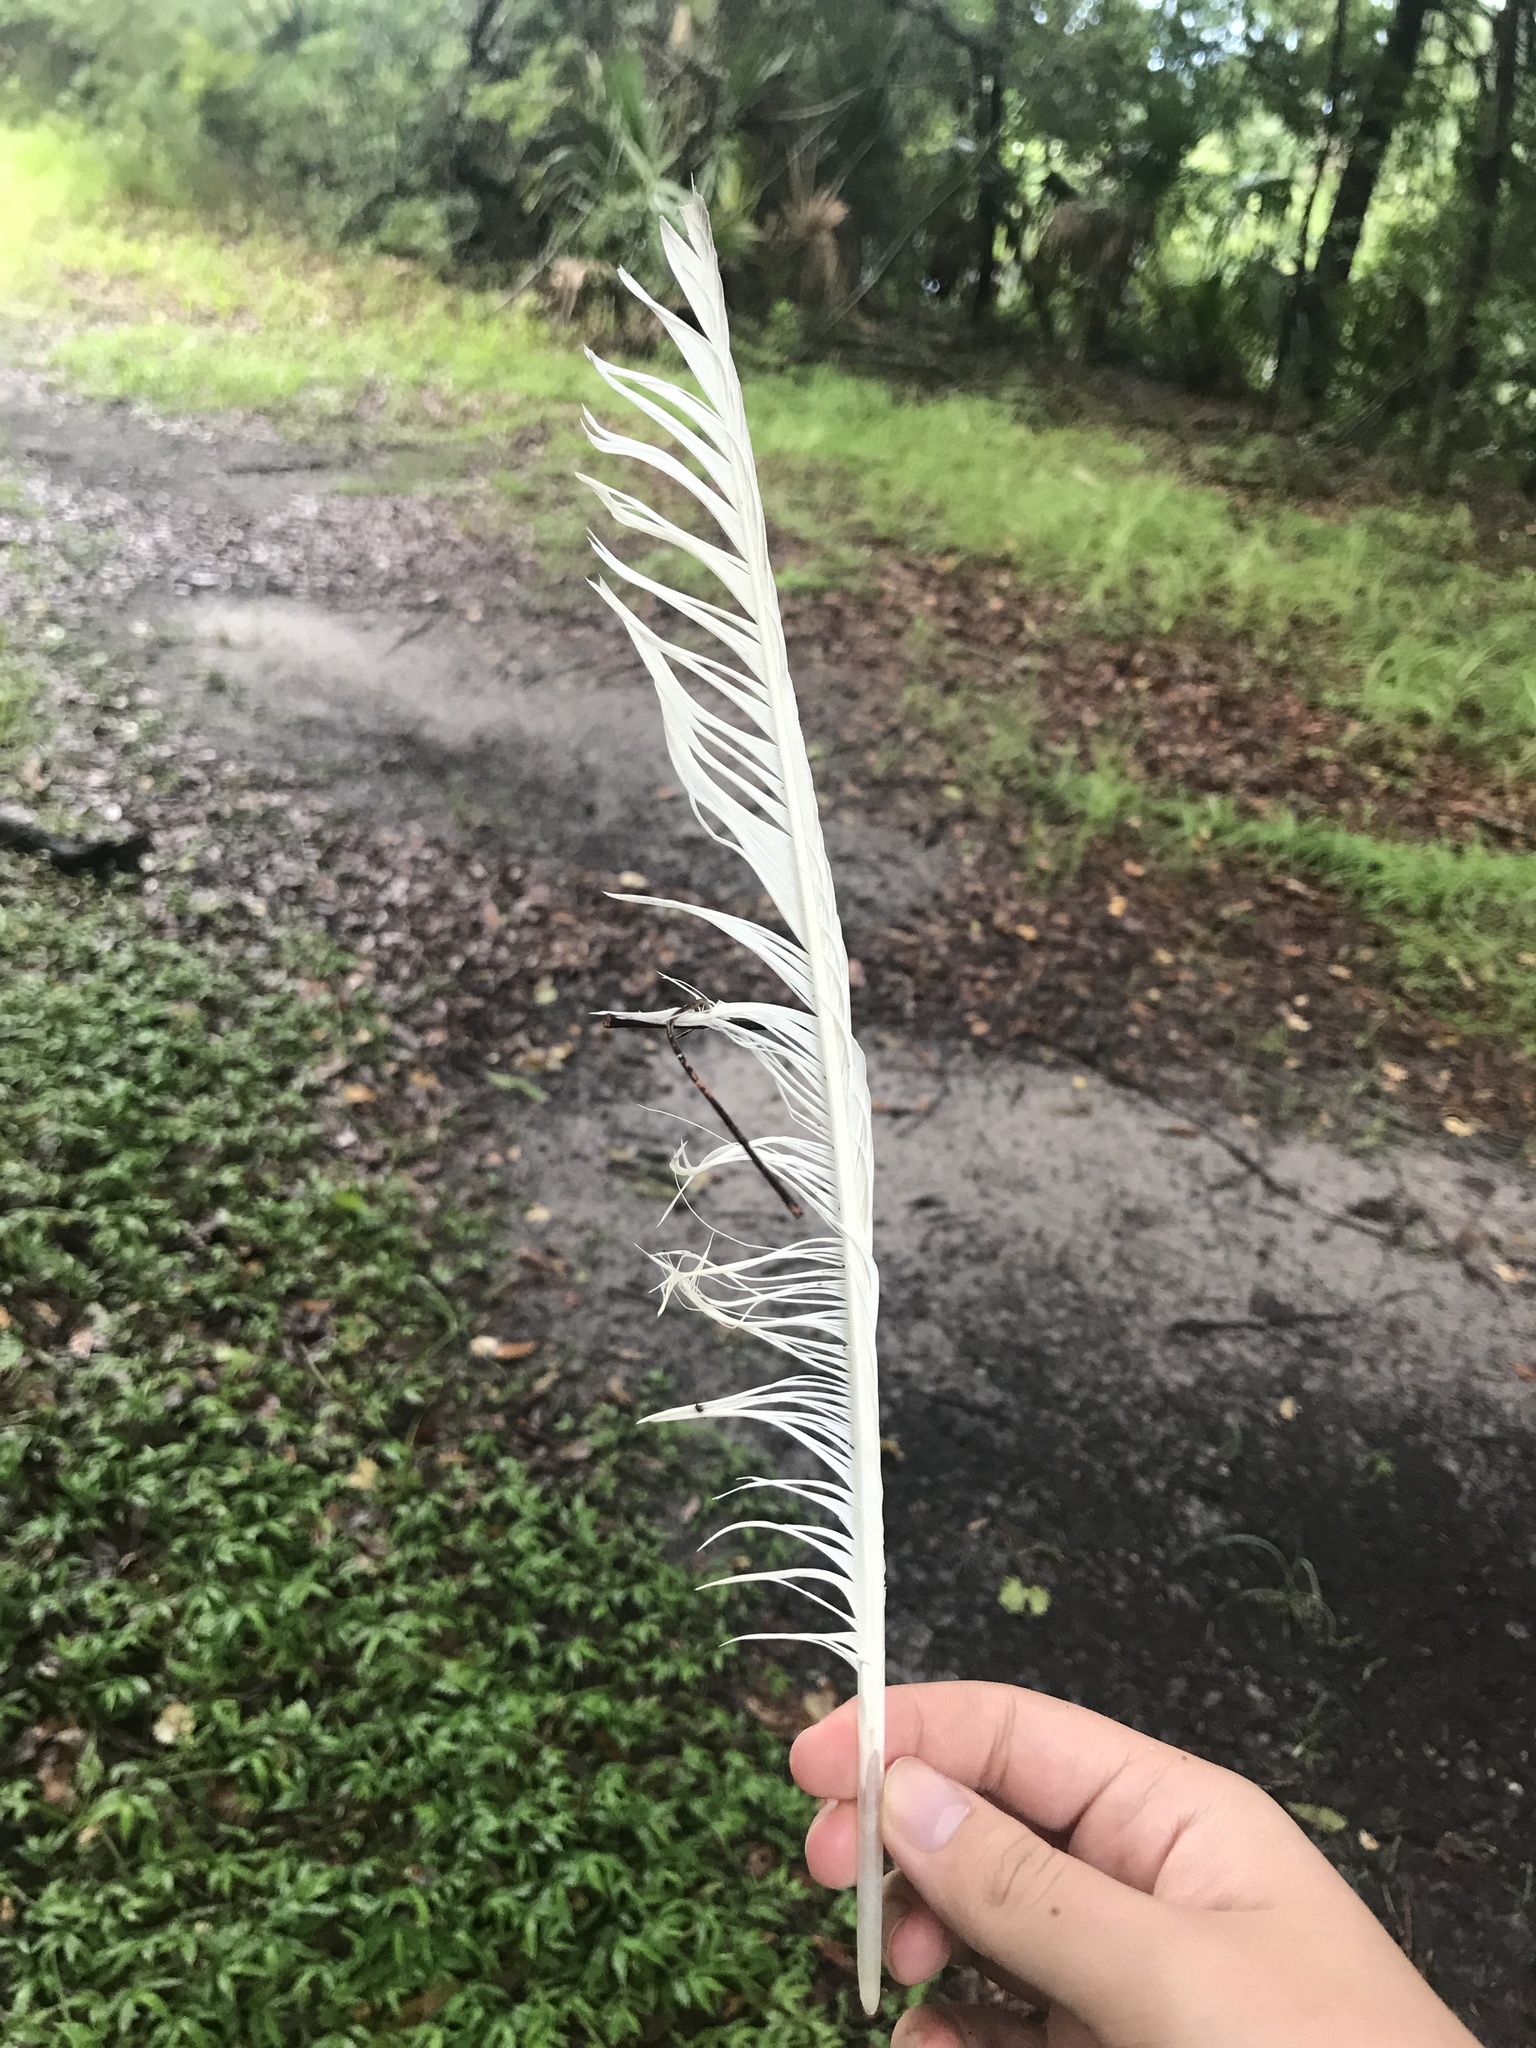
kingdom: Animalia
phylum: Chordata
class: Aves
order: Pelecaniformes
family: Ardeidae
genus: Ardea
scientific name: Ardea alba
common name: Great egret
